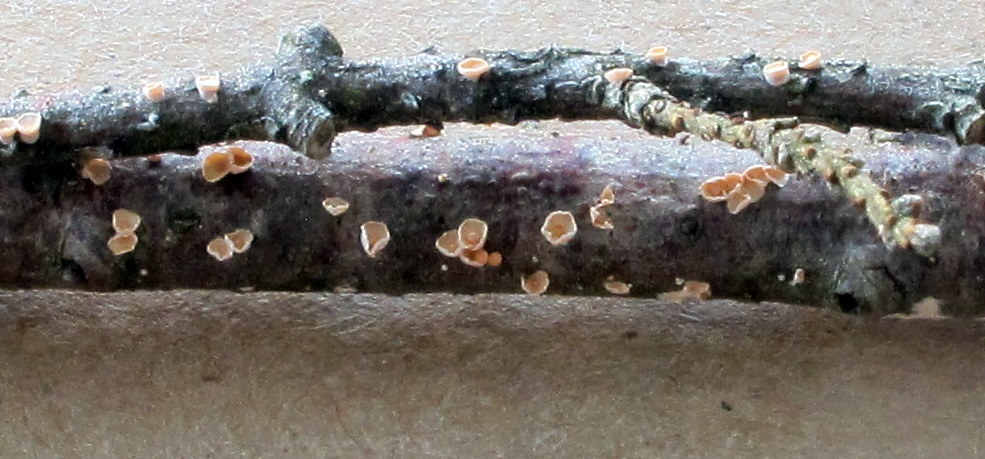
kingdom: Fungi
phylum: Basidiomycota
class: Agaricomycetes
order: Corticiales
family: Corticiaceae
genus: Corticium
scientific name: Corticium minnsiae
